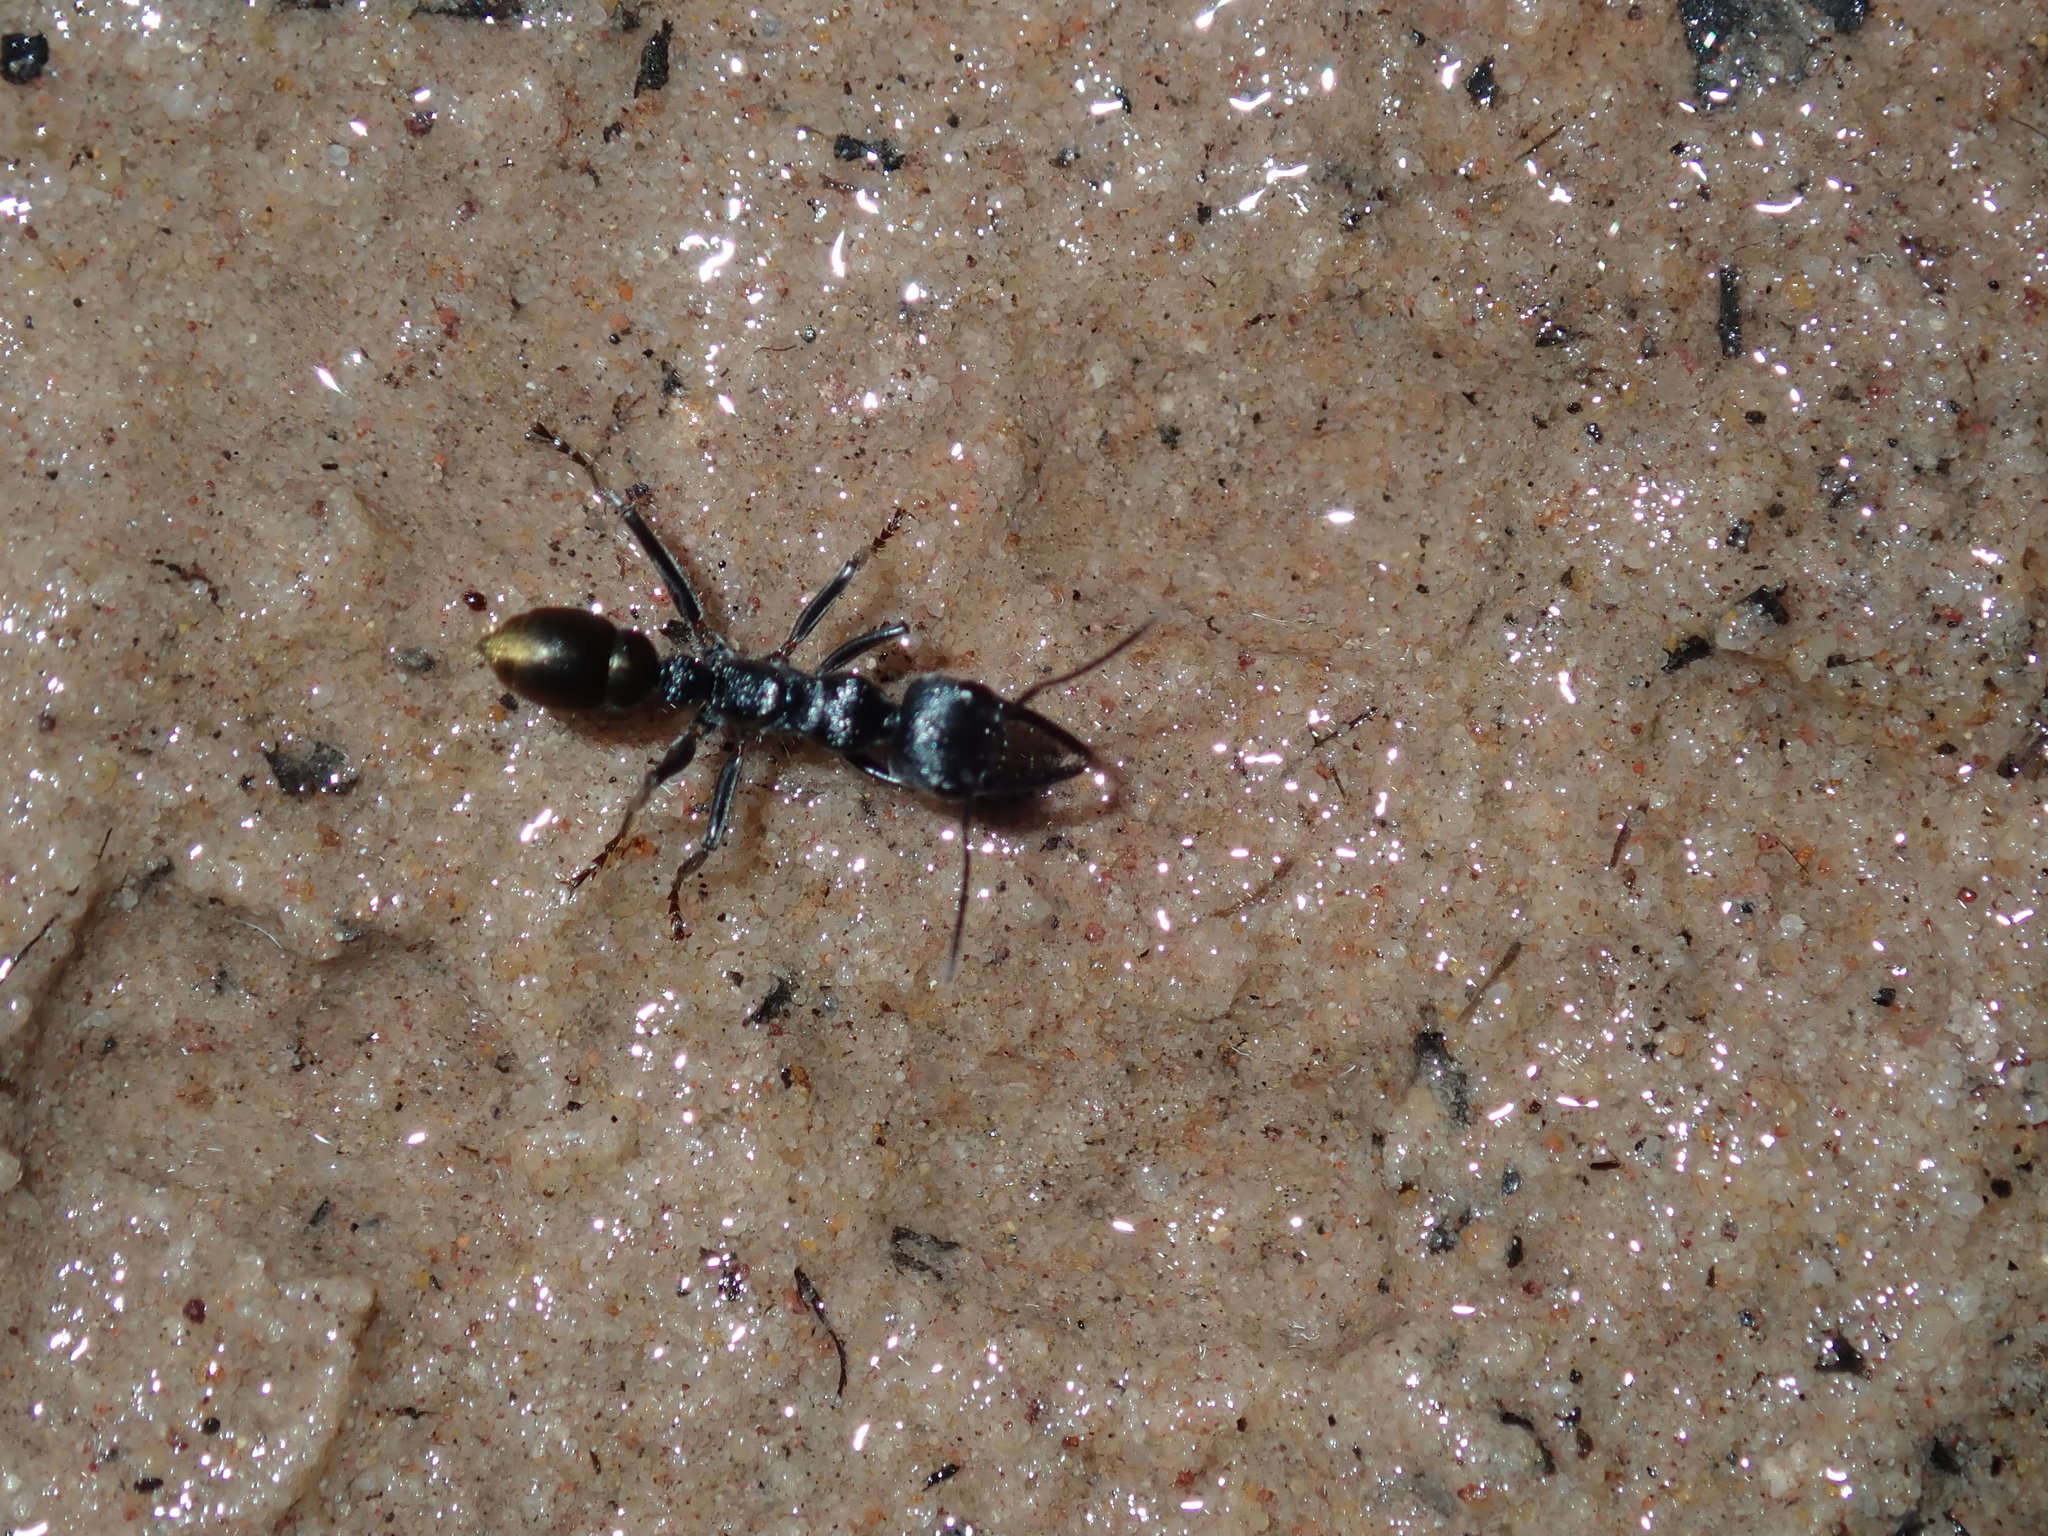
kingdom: Animalia
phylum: Arthropoda
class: Insecta
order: Hymenoptera
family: Formicidae
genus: Myrmecia
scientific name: Myrmecia piliventris
